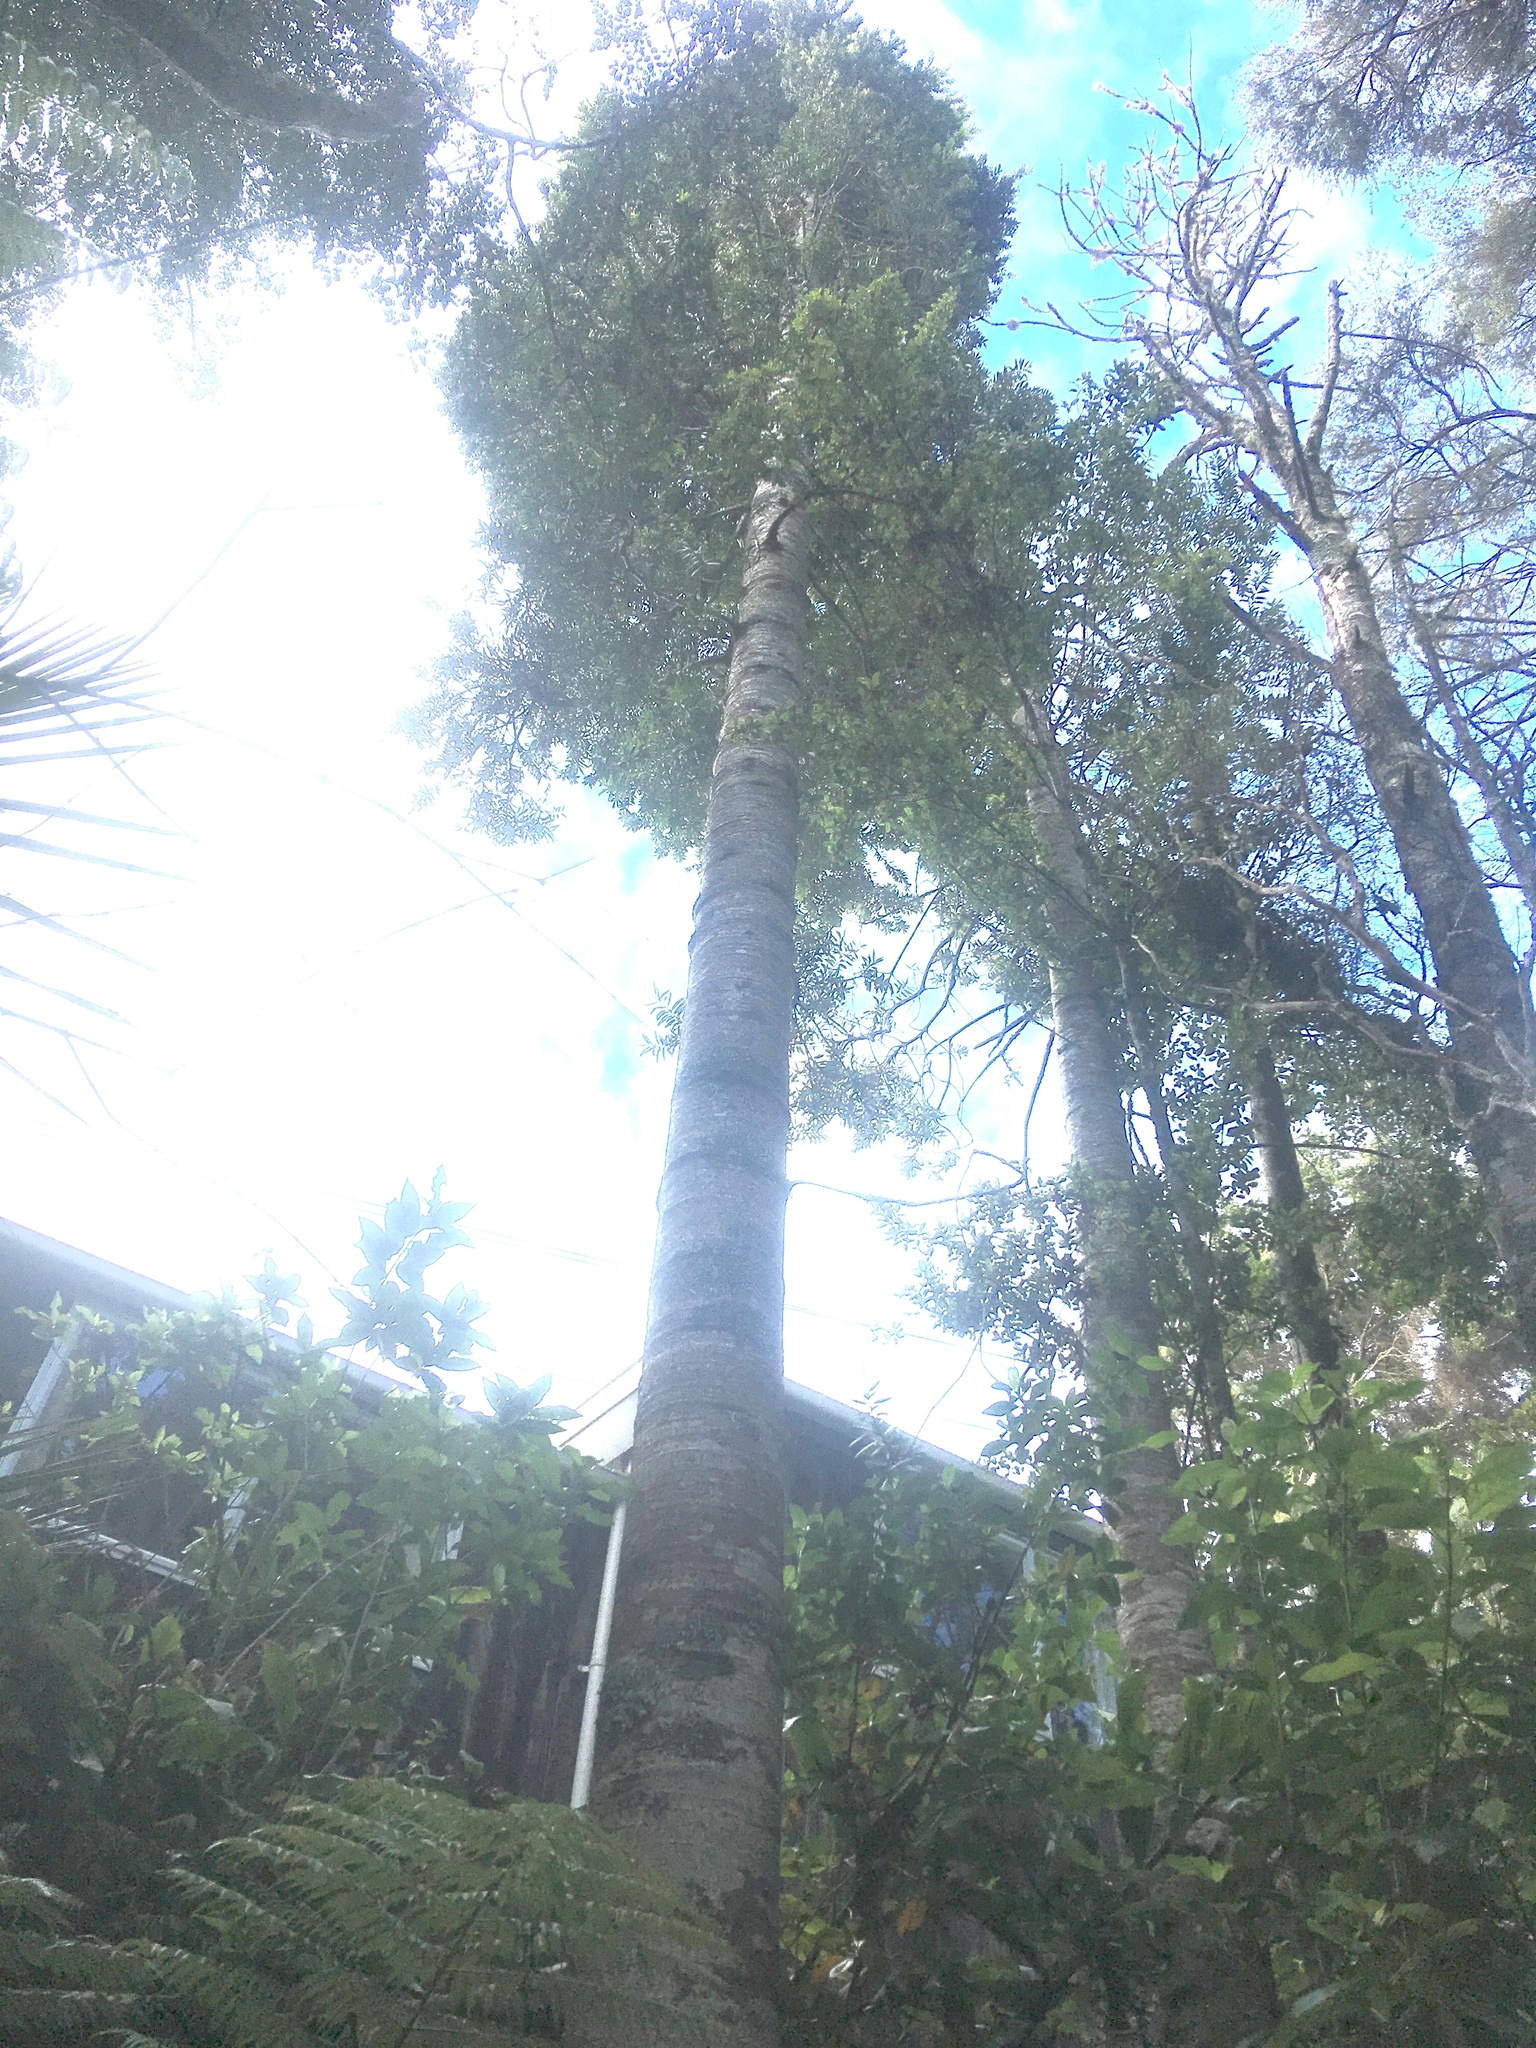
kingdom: Plantae
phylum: Tracheophyta
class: Pinopsida
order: Pinales
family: Araucariaceae
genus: Agathis
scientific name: Agathis australis
